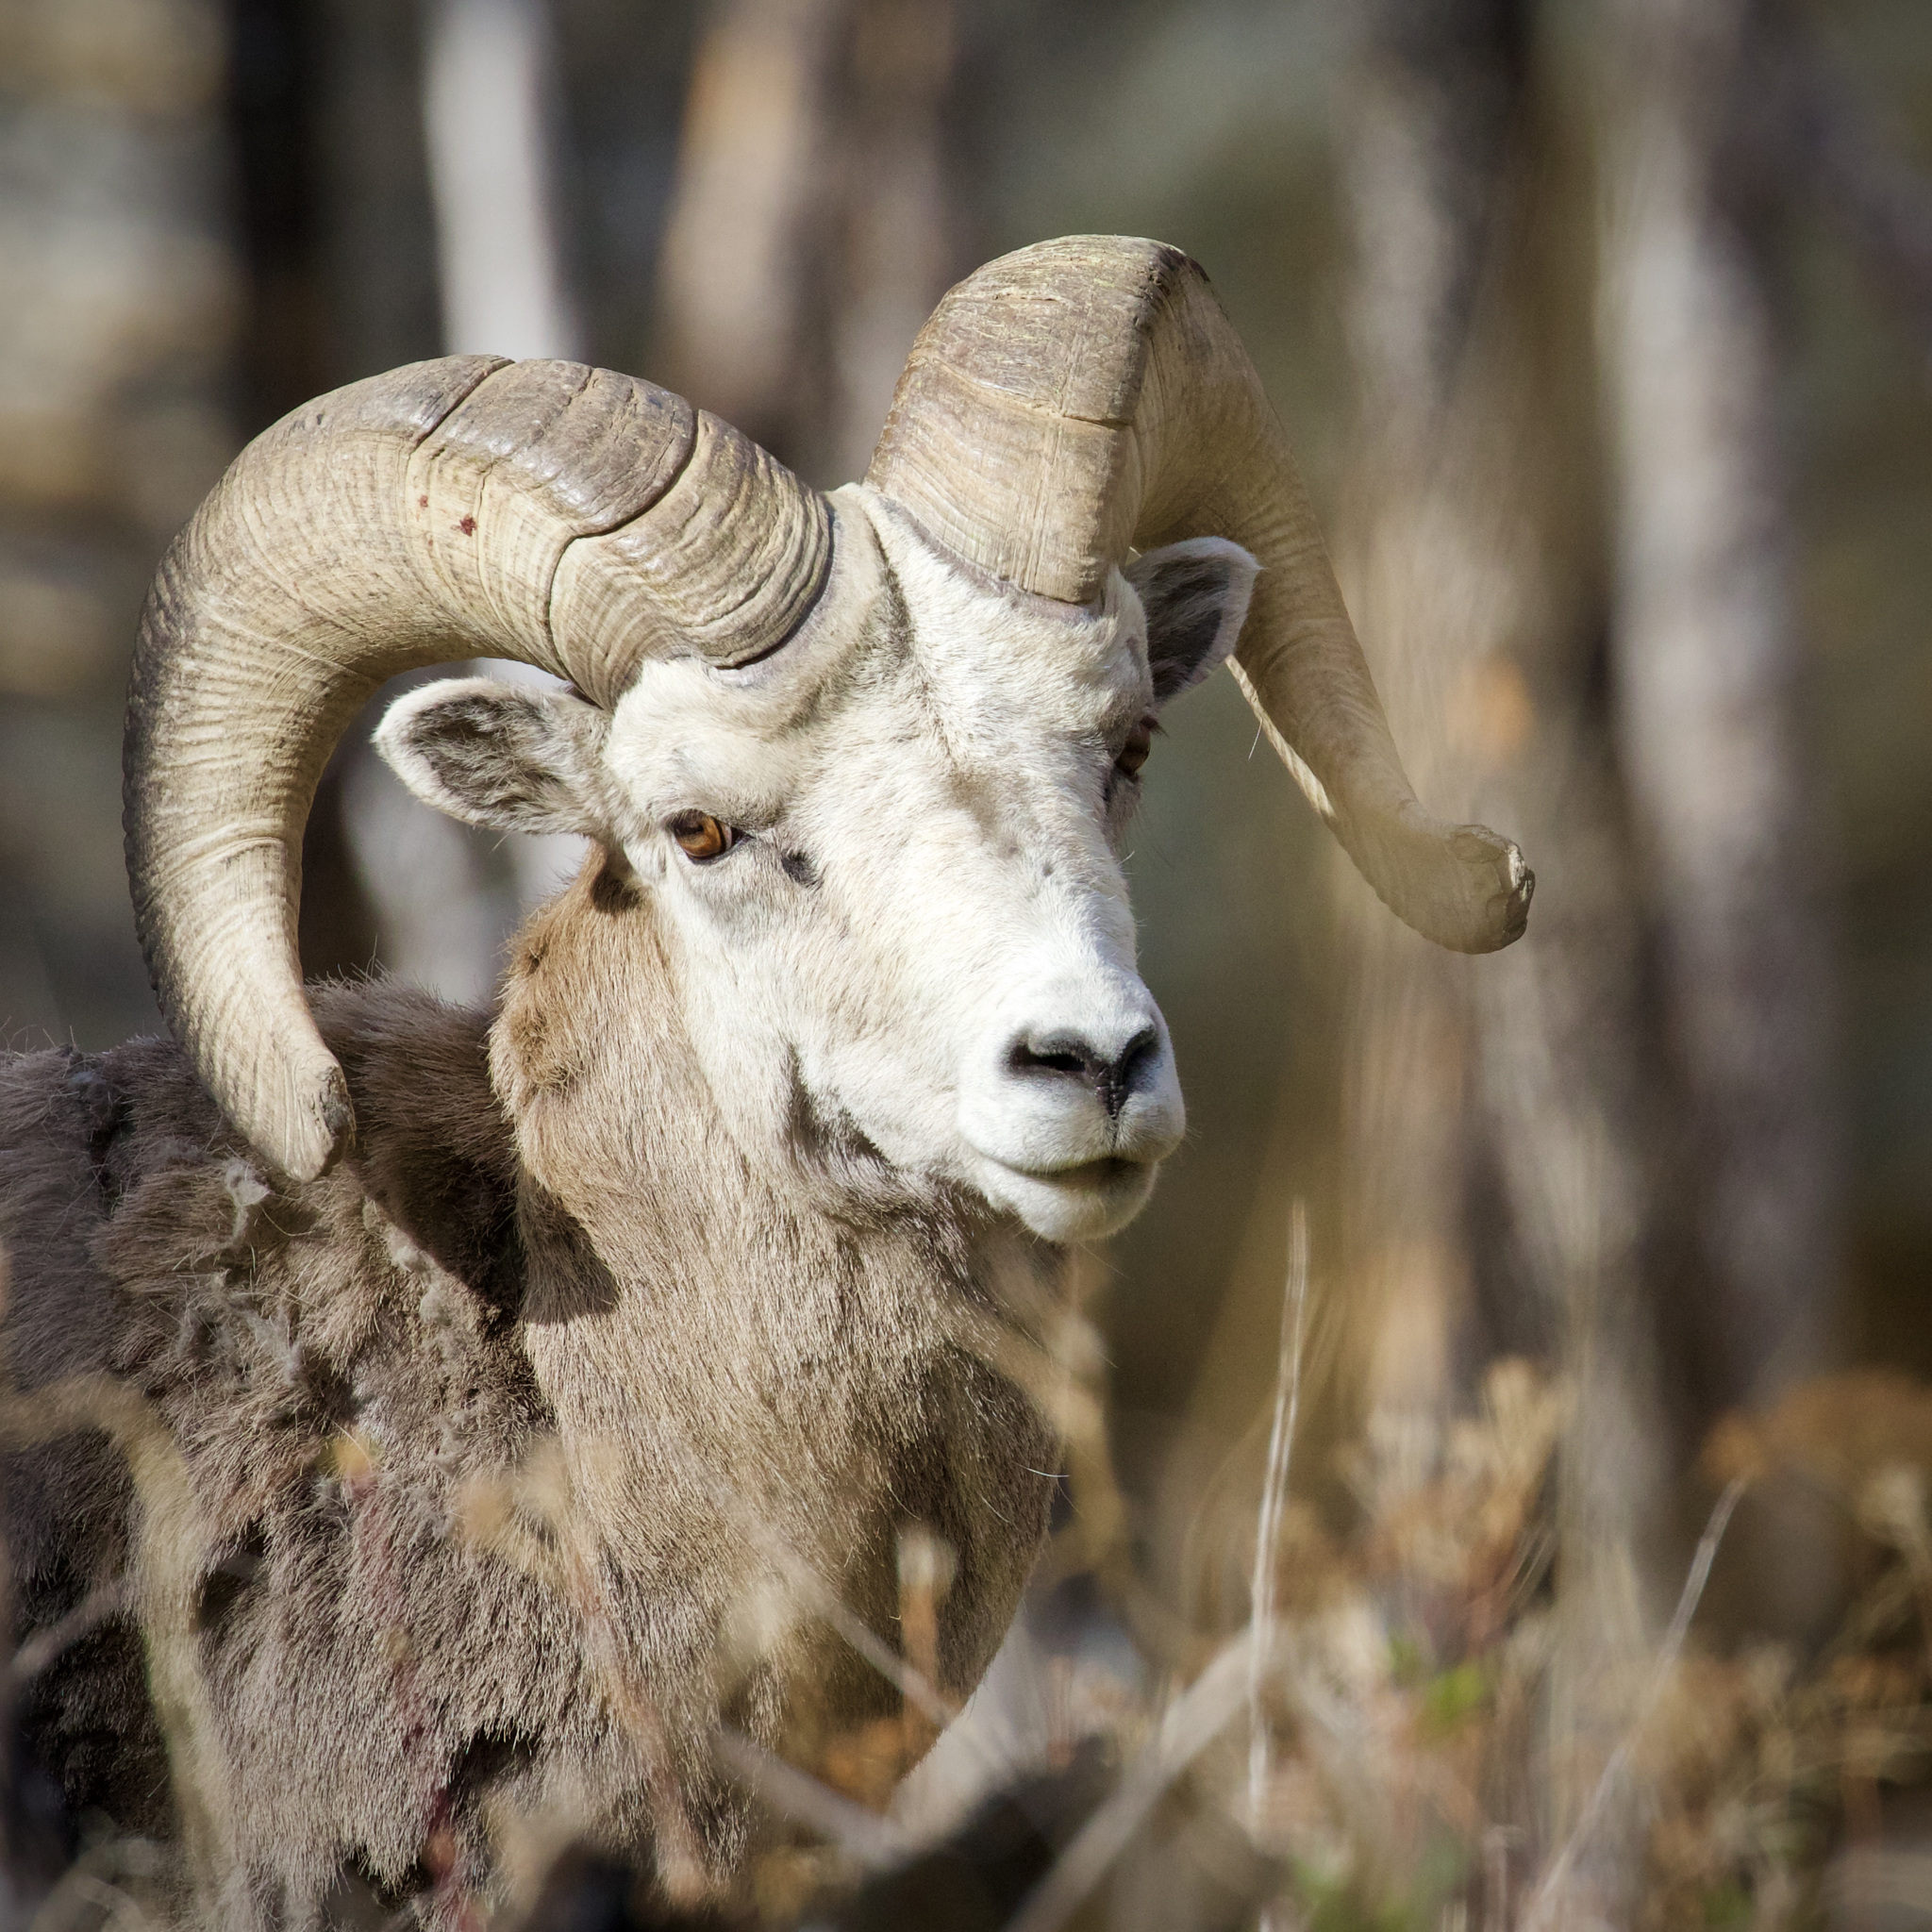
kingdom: Animalia
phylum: Chordata
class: Mammalia
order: Artiodactyla
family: Bovidae
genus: Ovis
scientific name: Ovis canadensis
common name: Bighorn sheep
